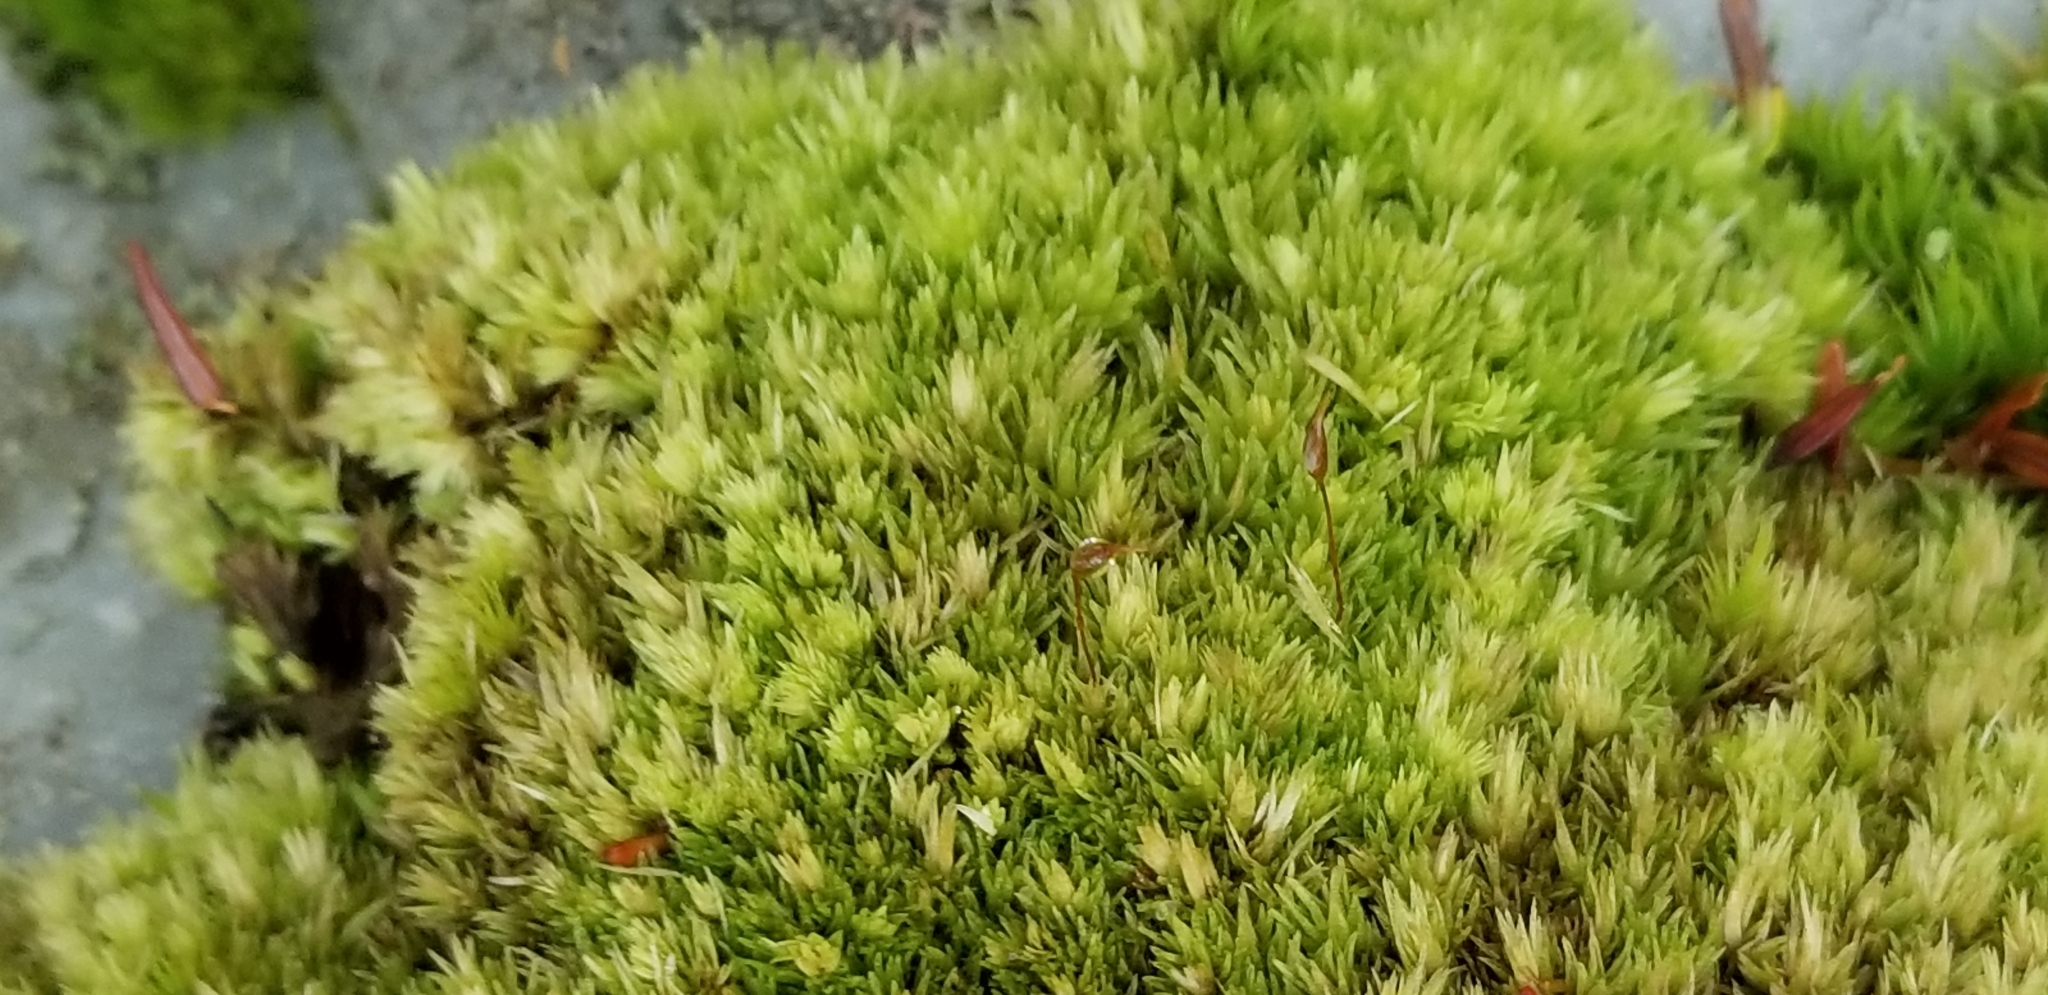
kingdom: Plantae
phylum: Bryophyta
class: Bryopsida
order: Dicranales
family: Leucobryaceae
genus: Leucobryum
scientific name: Leucobryum glaucum
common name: Large white-moss
